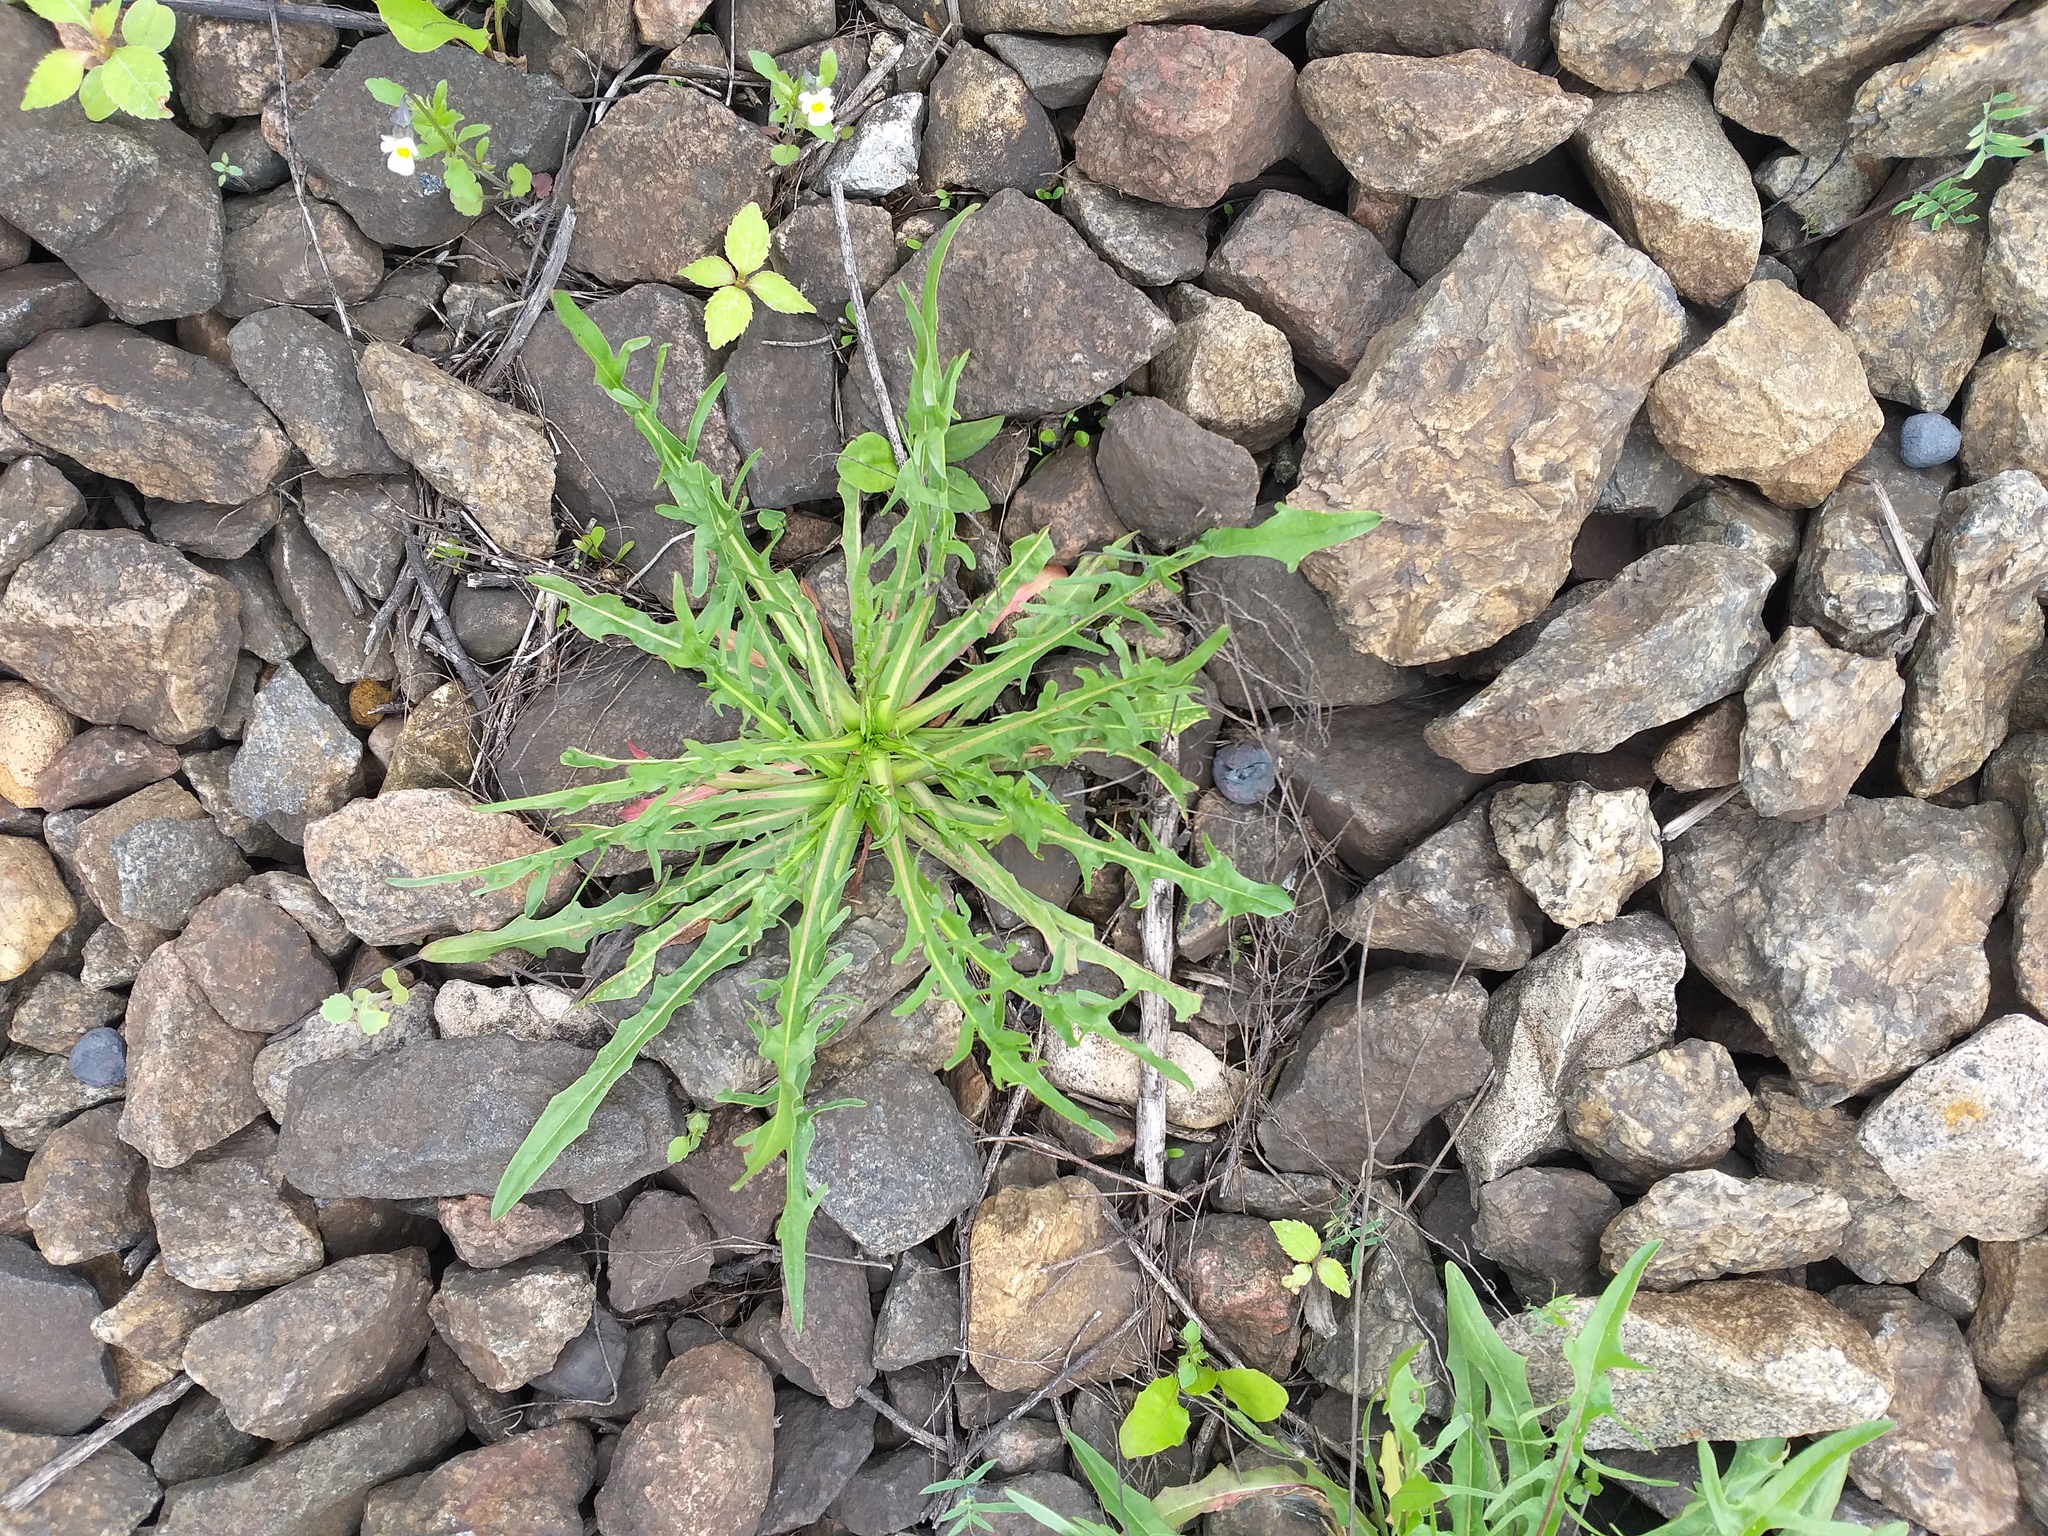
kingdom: Plantae
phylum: Tracheophyta
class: Magnoliopsida
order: Asterales
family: Asteraceae
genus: Scorzoneroides
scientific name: Scorzoneroides autumnalis
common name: Autumn hawkbit
